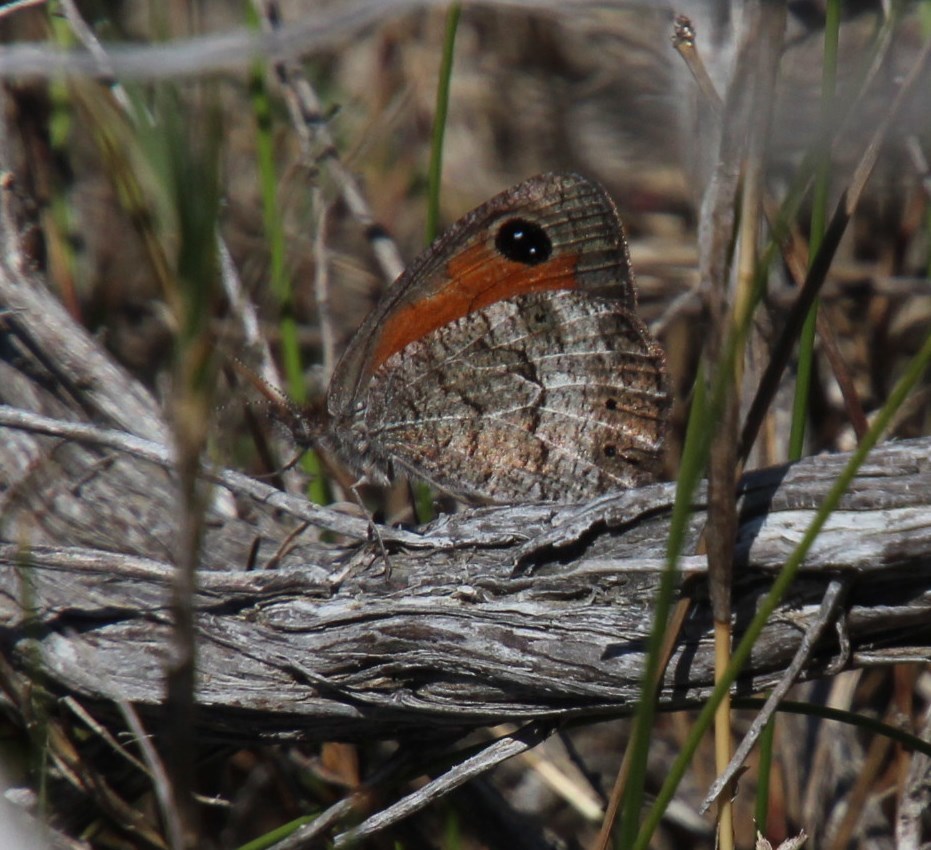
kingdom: Animalia
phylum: Arthropoda
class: Insecta
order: Lepidoptera
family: Nymphalidae
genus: Pseudonympha
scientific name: Pseudonympha magus
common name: Silver-bottom brown
